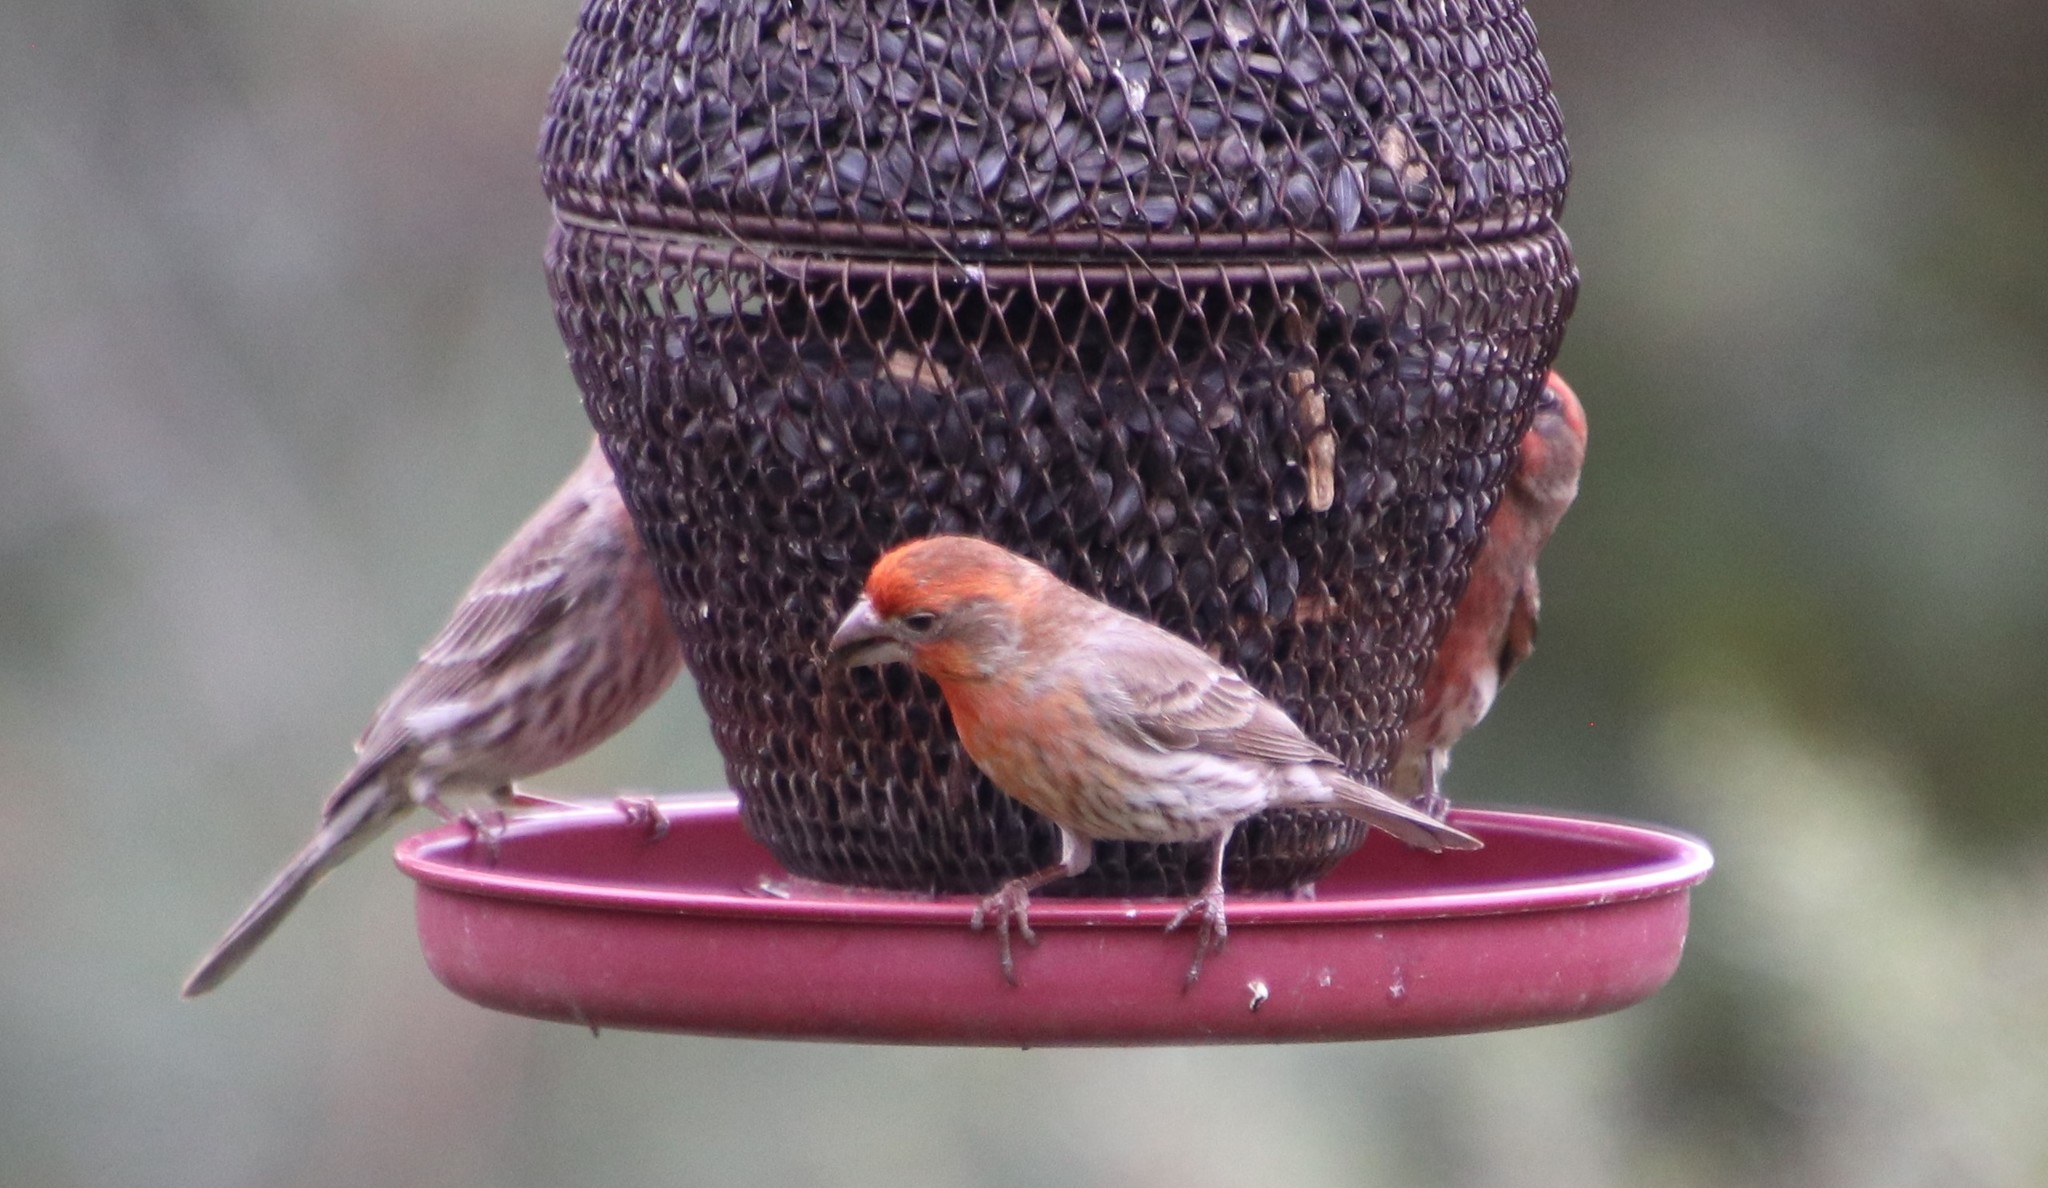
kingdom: Animalia
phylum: Chordata
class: Aves
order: Passeriformes
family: Fringillidae
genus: Haemorhous
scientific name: Haemorhous mexicanus
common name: House finch
